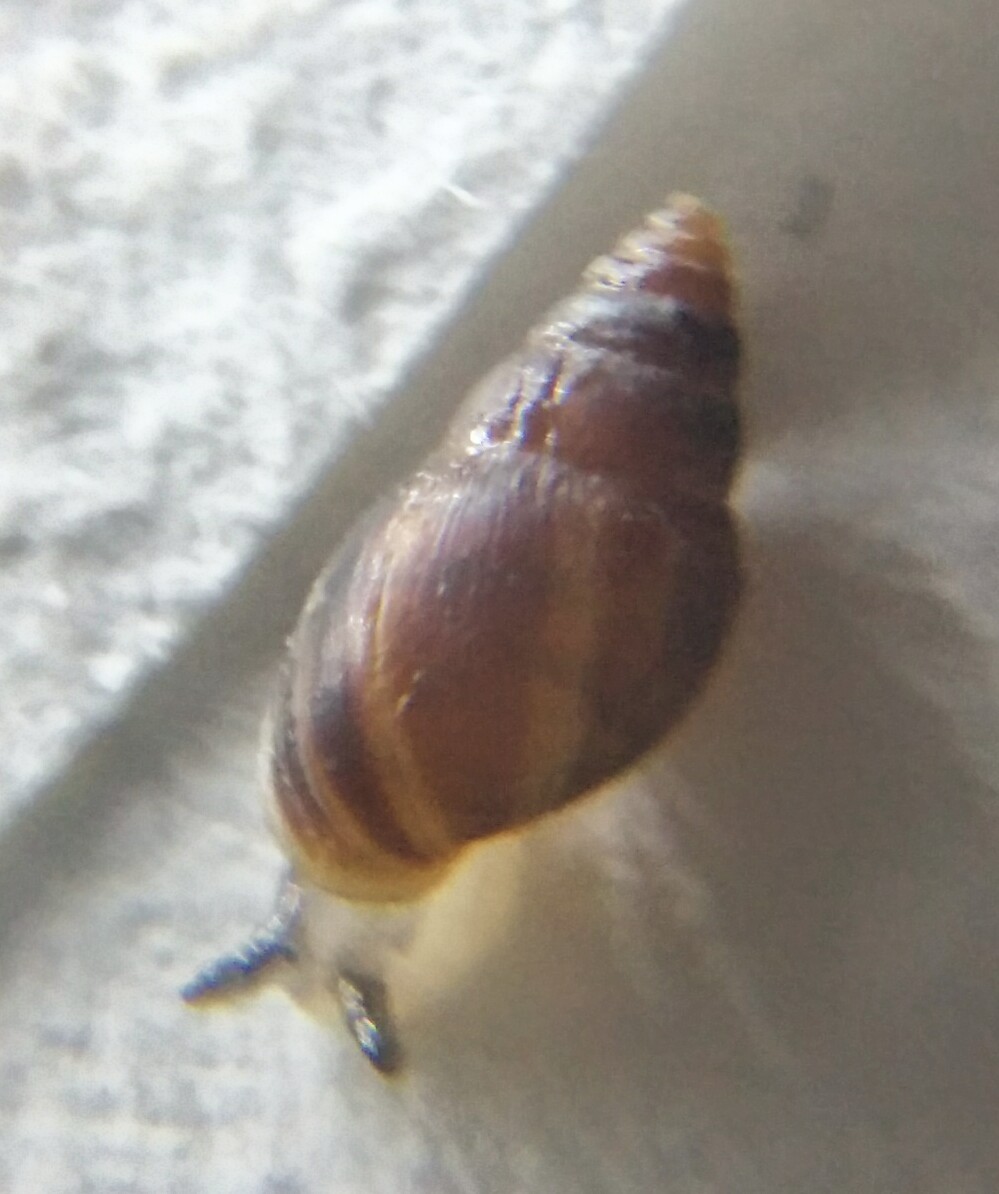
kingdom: Animalia
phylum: Mollusca
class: Gastropoda
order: Ellobiida
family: Ellobiidae
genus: Myosotella
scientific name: Myosotella myosotis
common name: Mouse-eared snail
